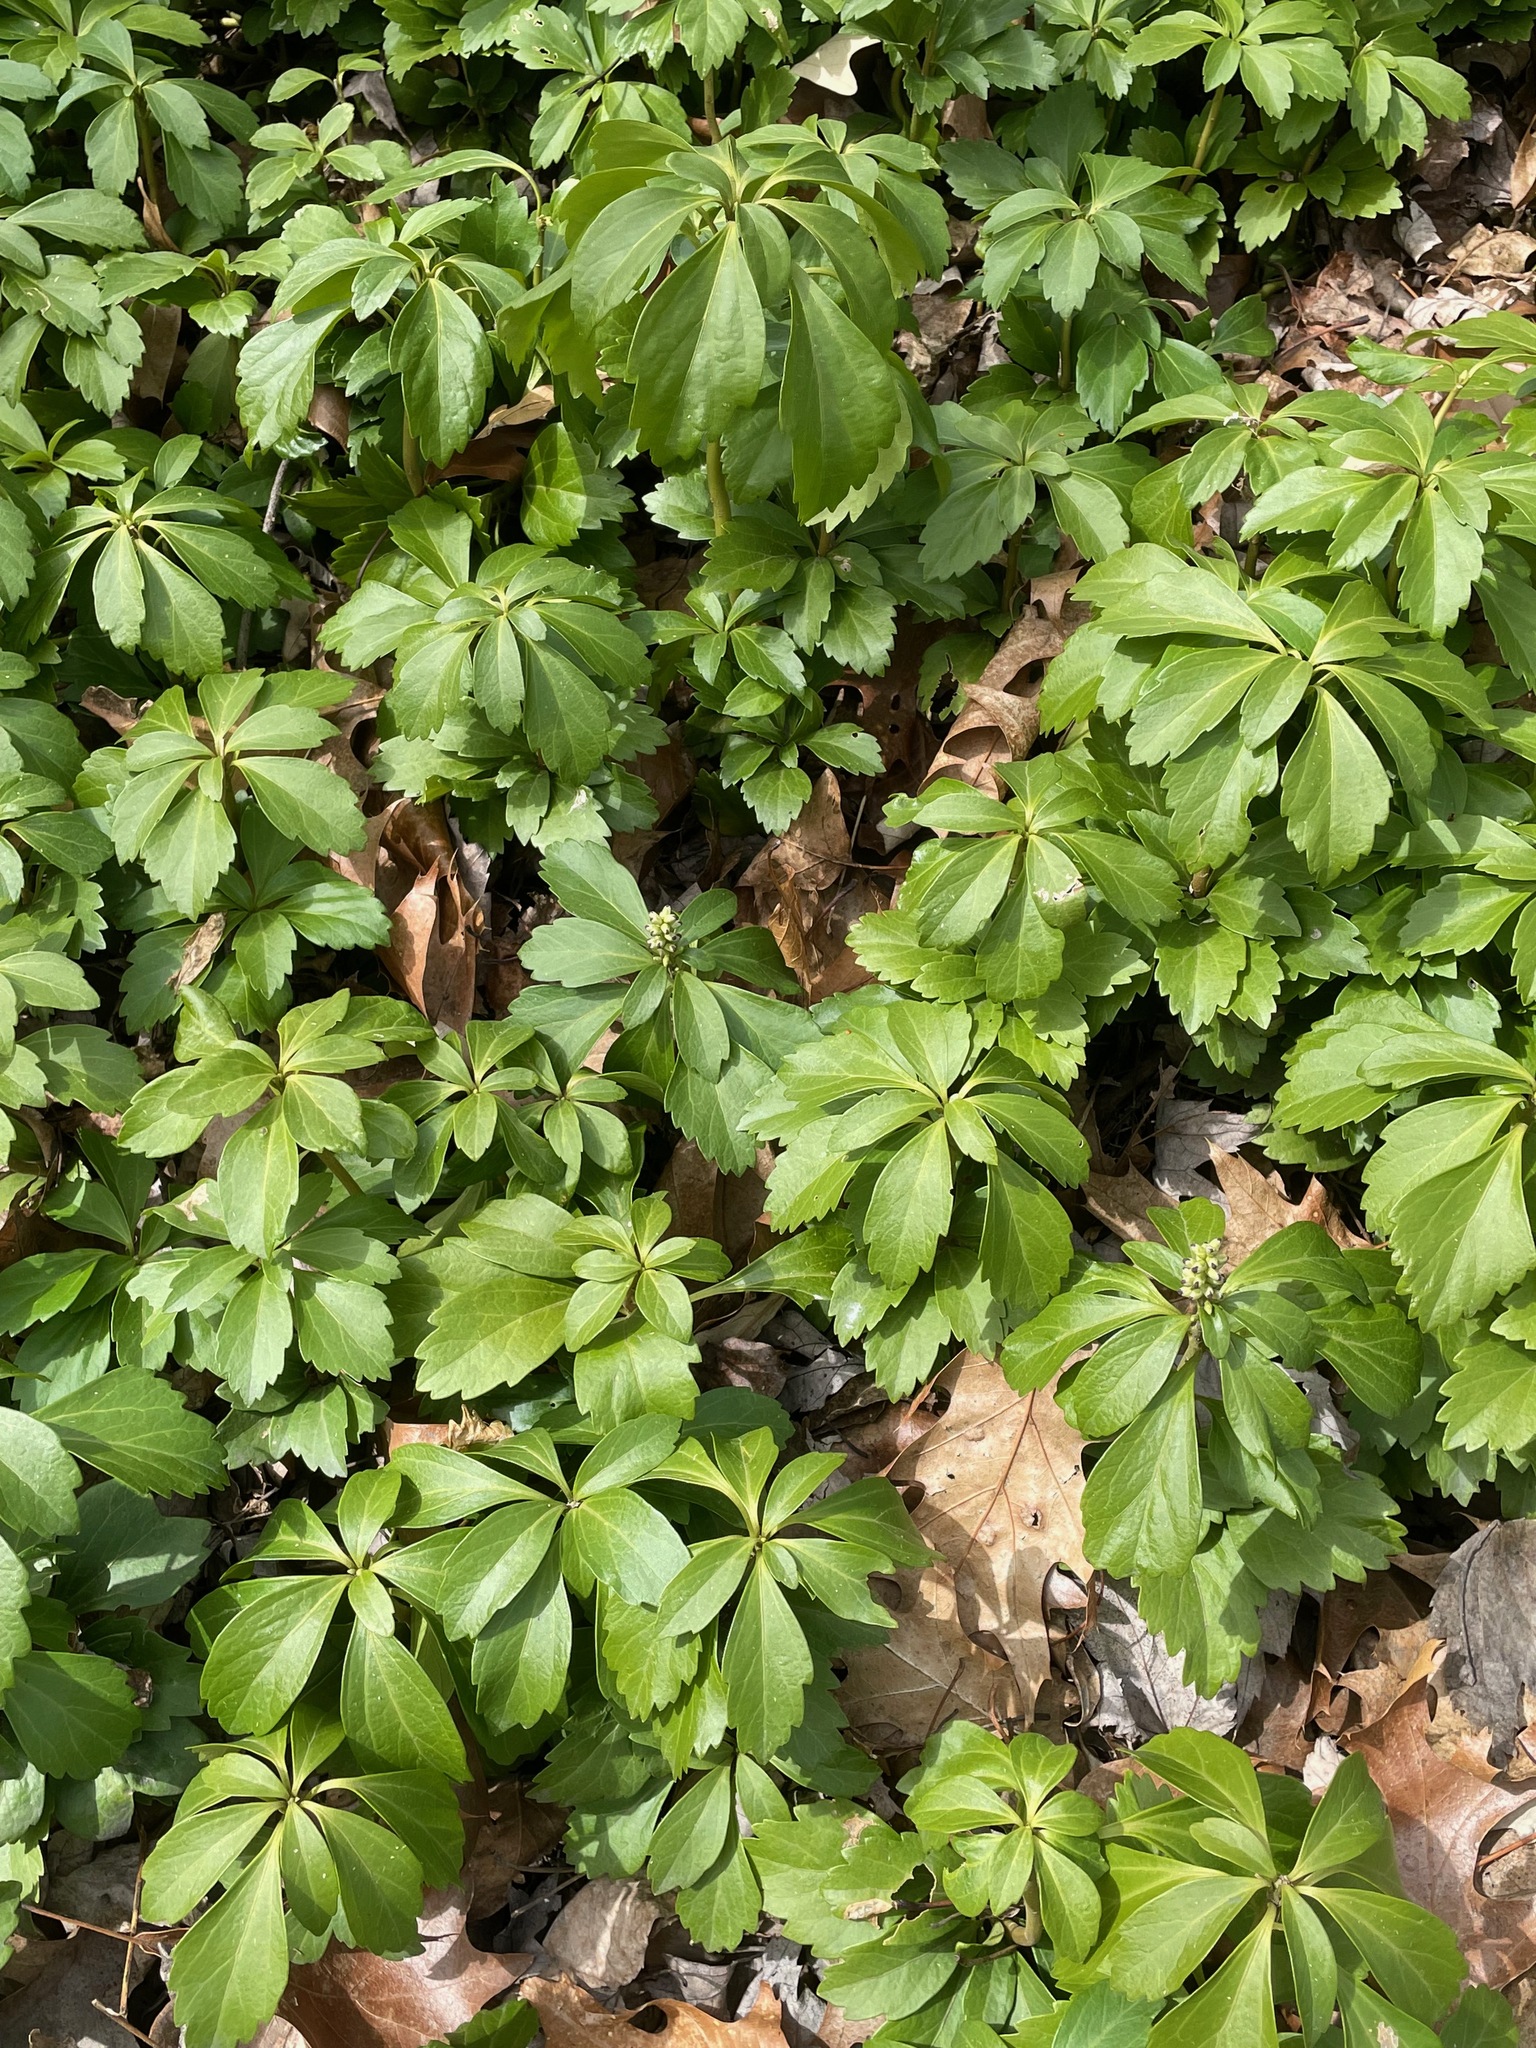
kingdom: Plantae
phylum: Tracheophyta
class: Magnoliopsida
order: Buxales
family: Buxaceae
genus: Pachysandra
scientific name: Pachysandra terminalis
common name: Japanese pachysandra
